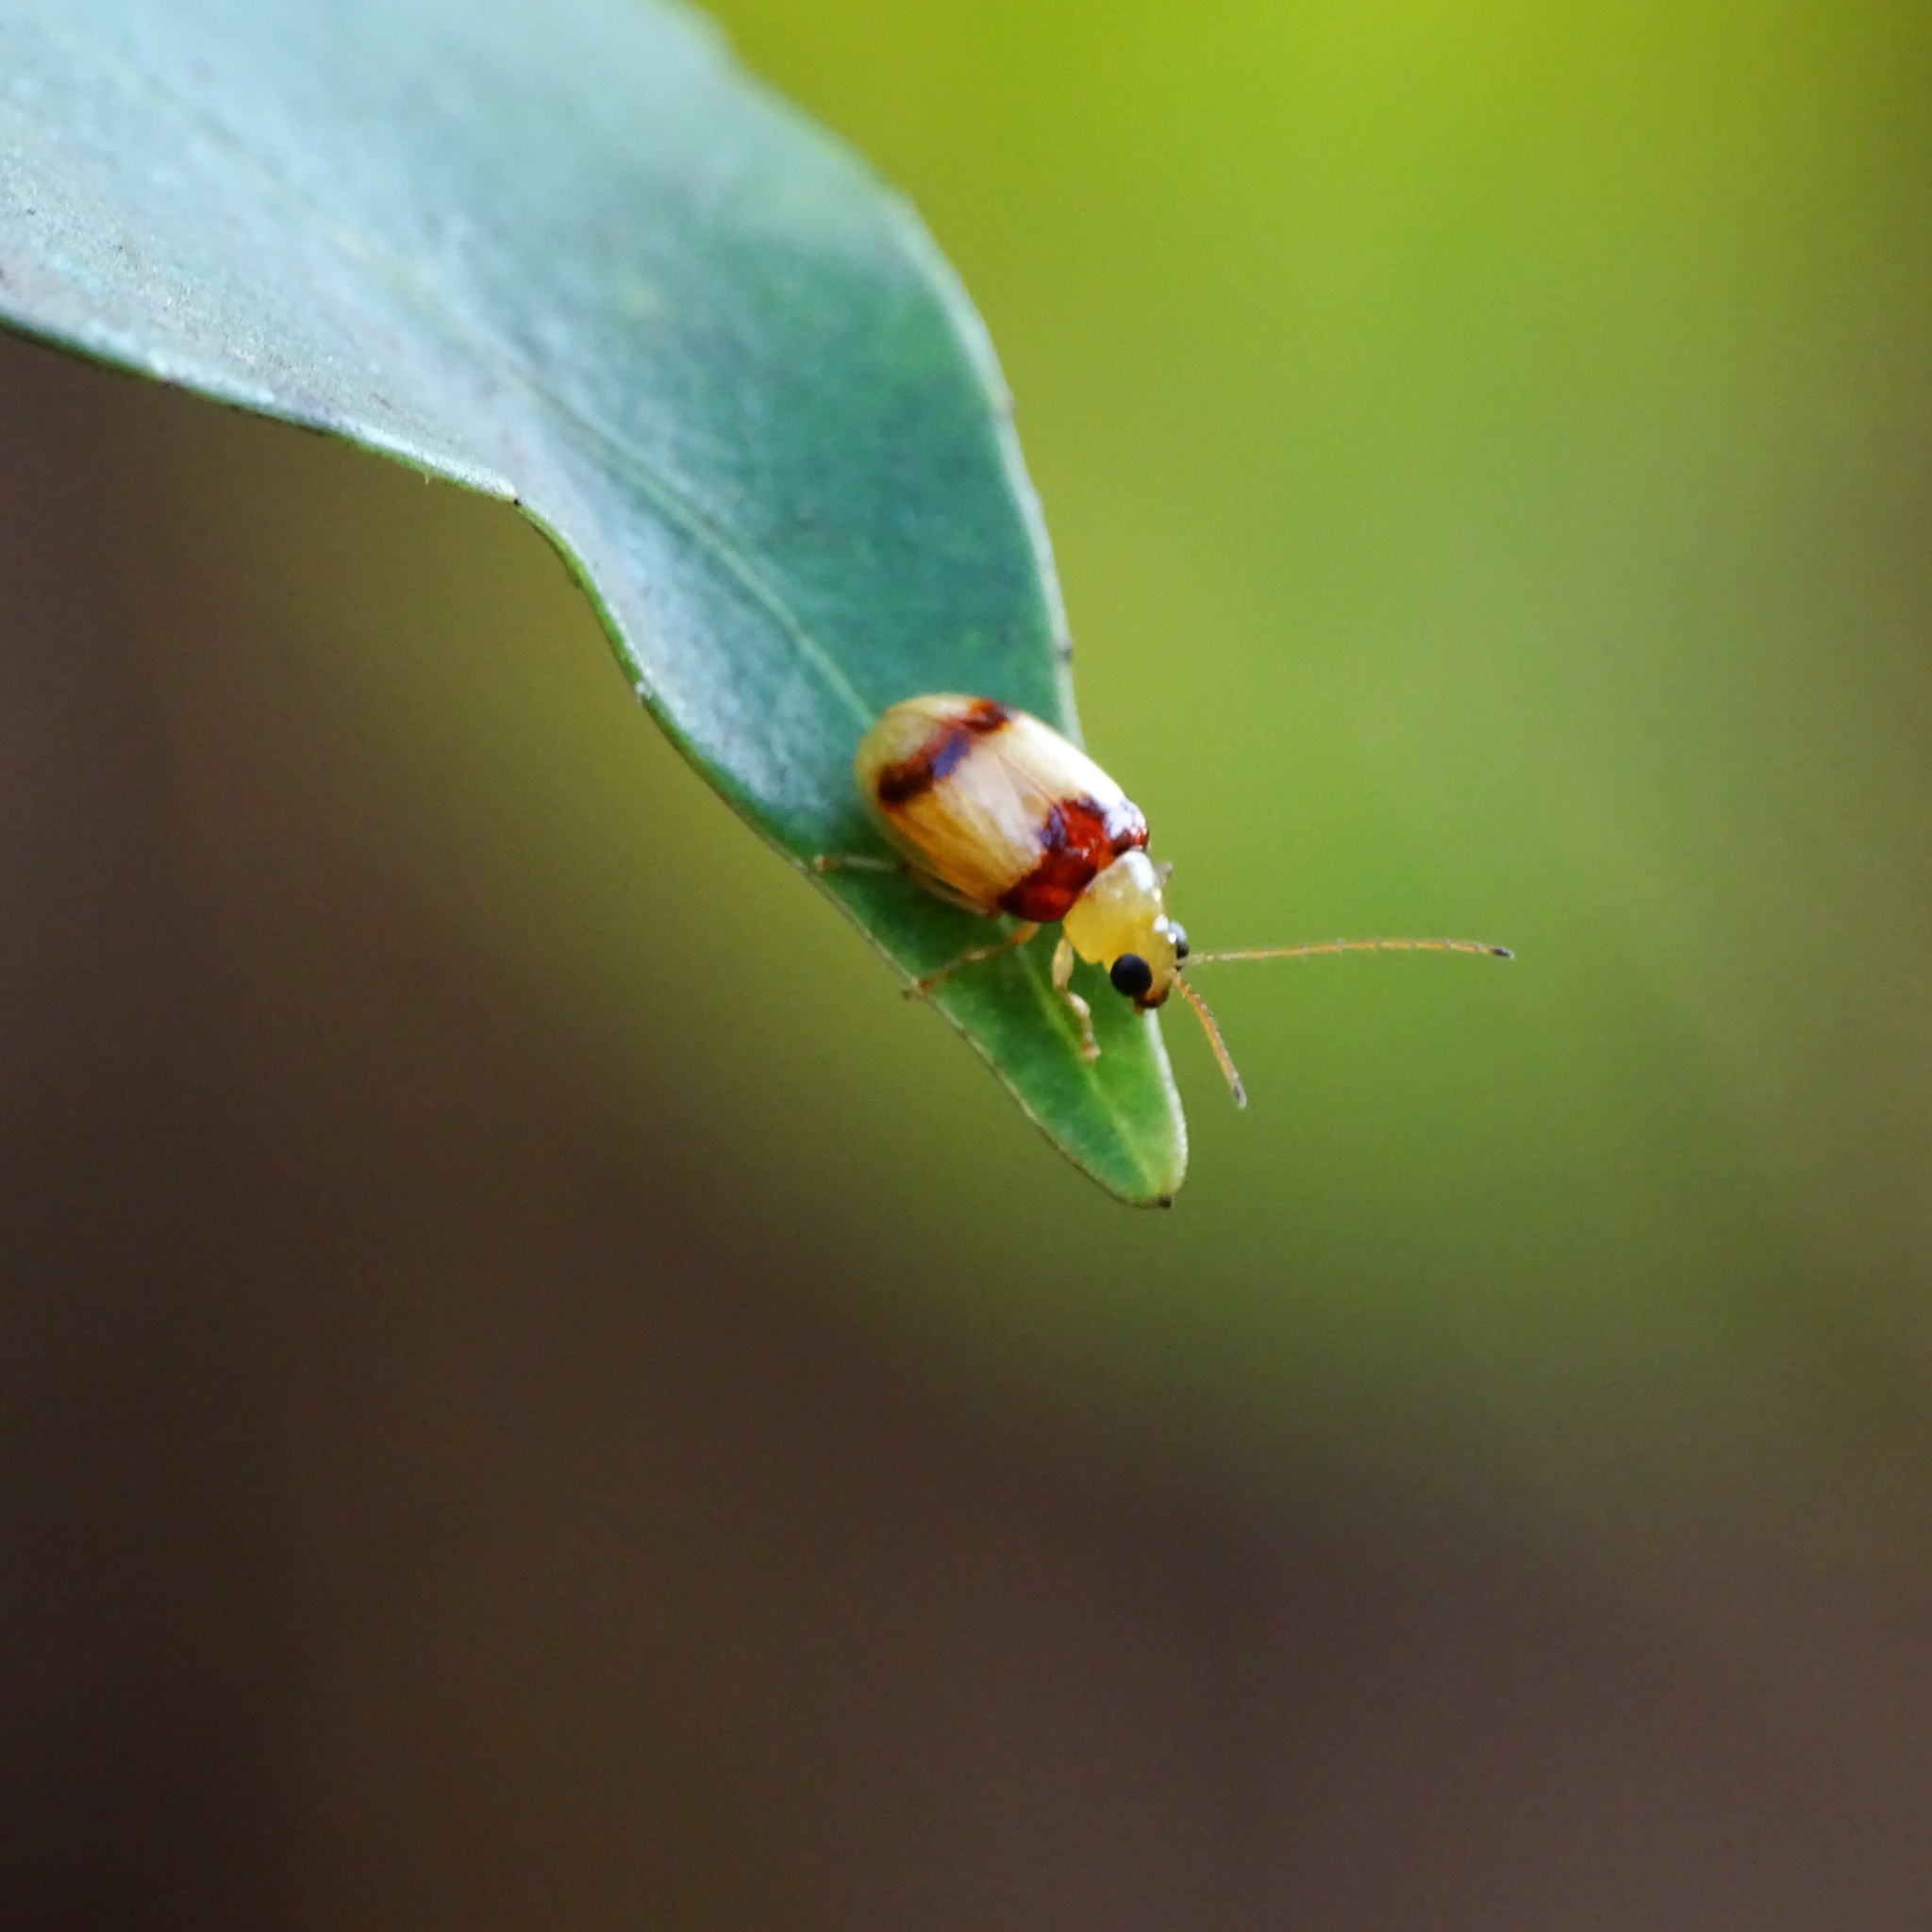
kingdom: Animalia
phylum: Arthropoda
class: Insecta
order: Coleoptera
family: Chrysomelidae
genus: Monolepta
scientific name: Monolepta
